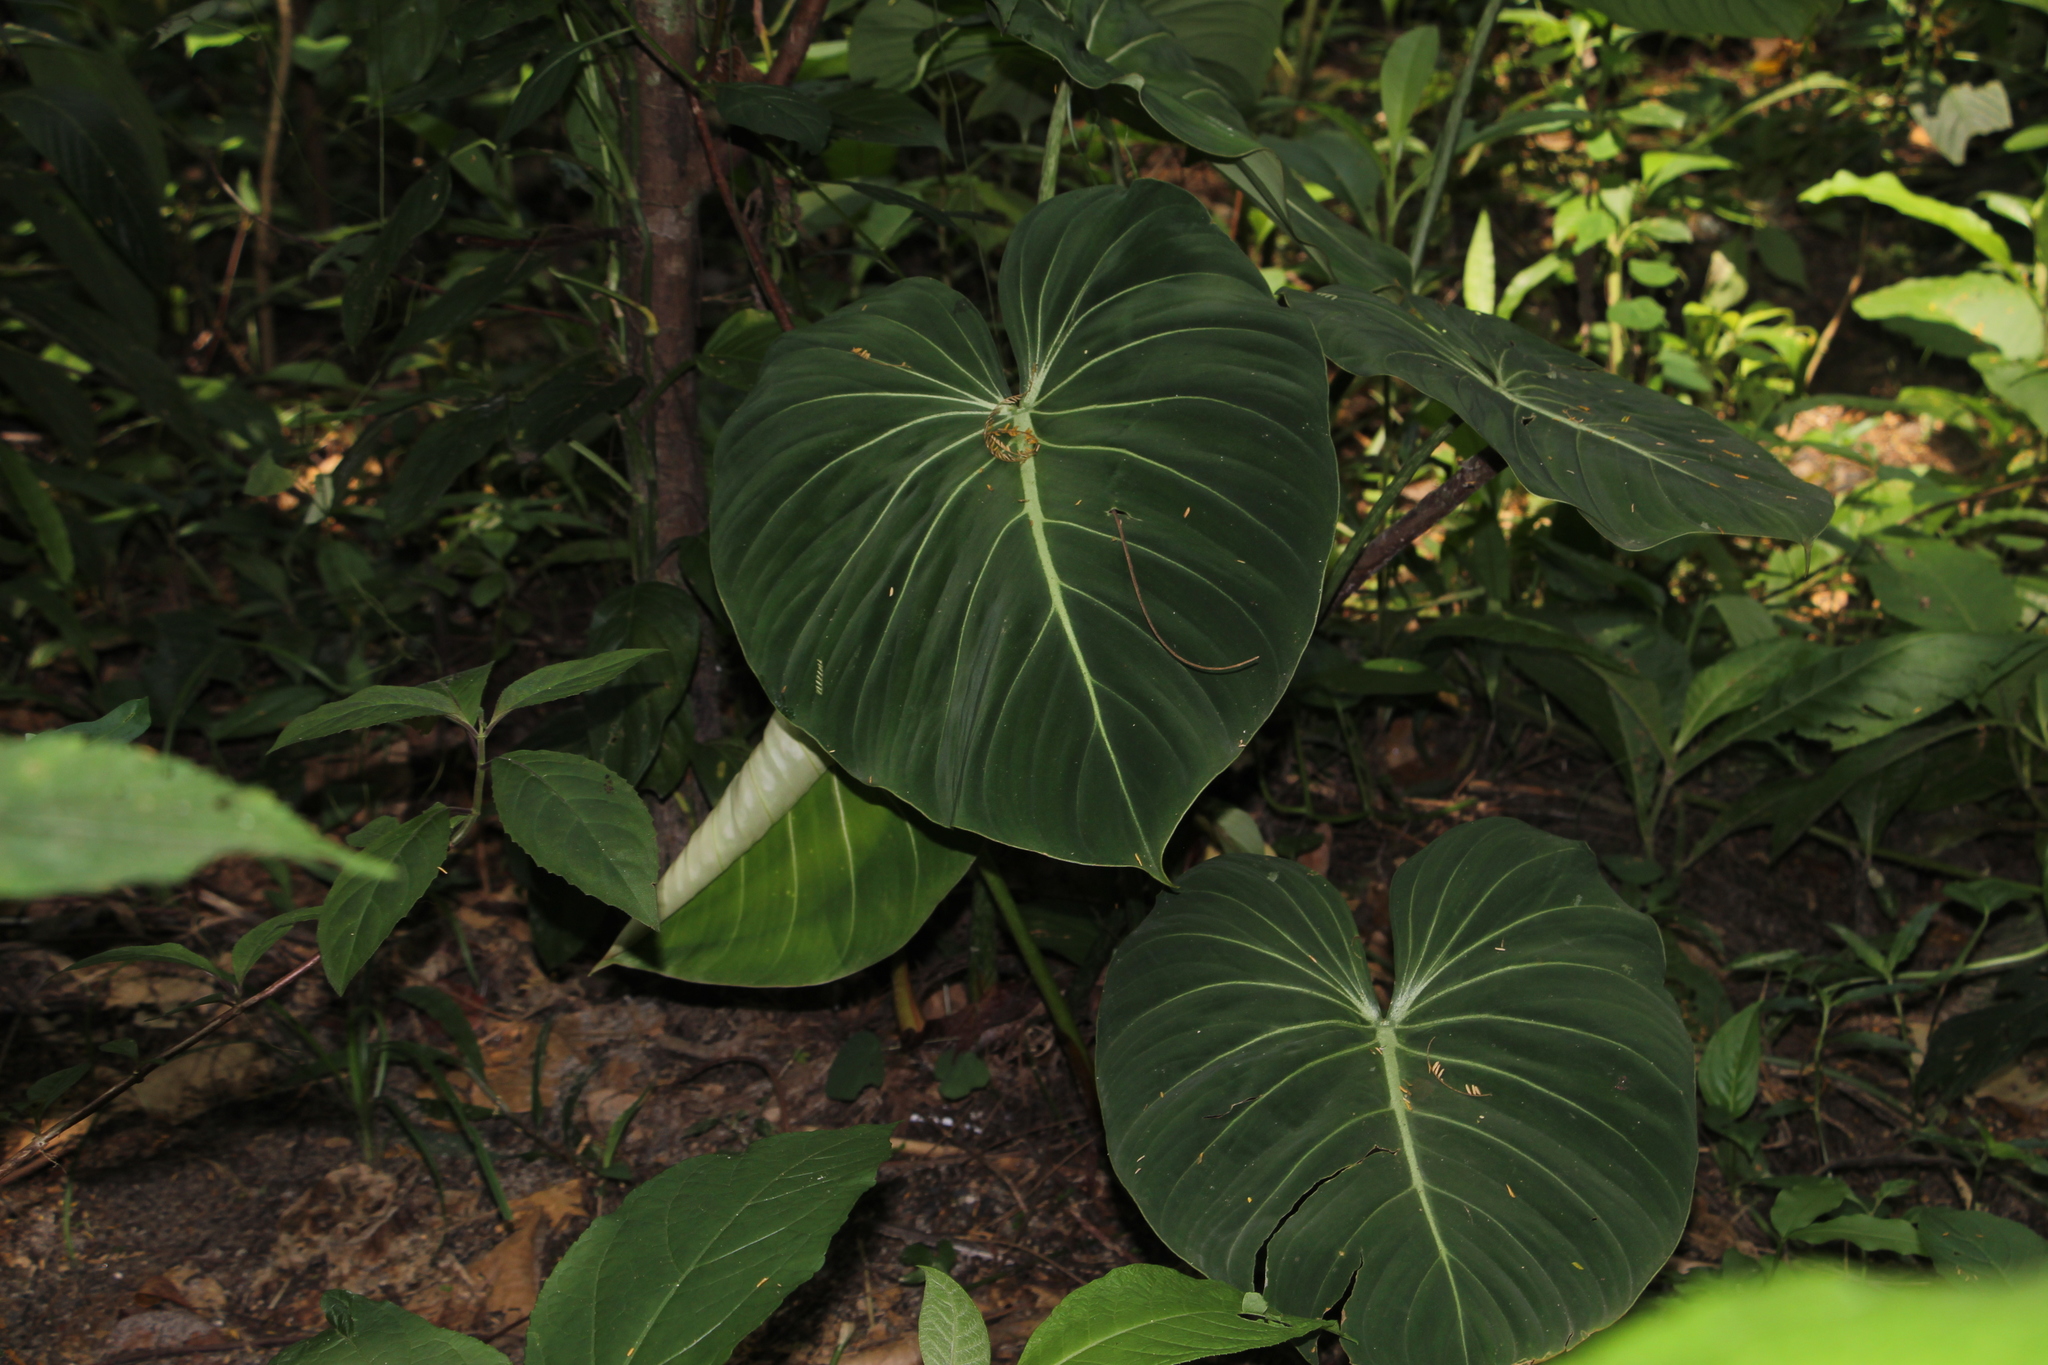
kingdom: Plantae
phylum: Tracheophyta
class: Liliopsida
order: Alismatales
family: Araceae
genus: Philodendron
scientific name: Philodendron gloriosum
